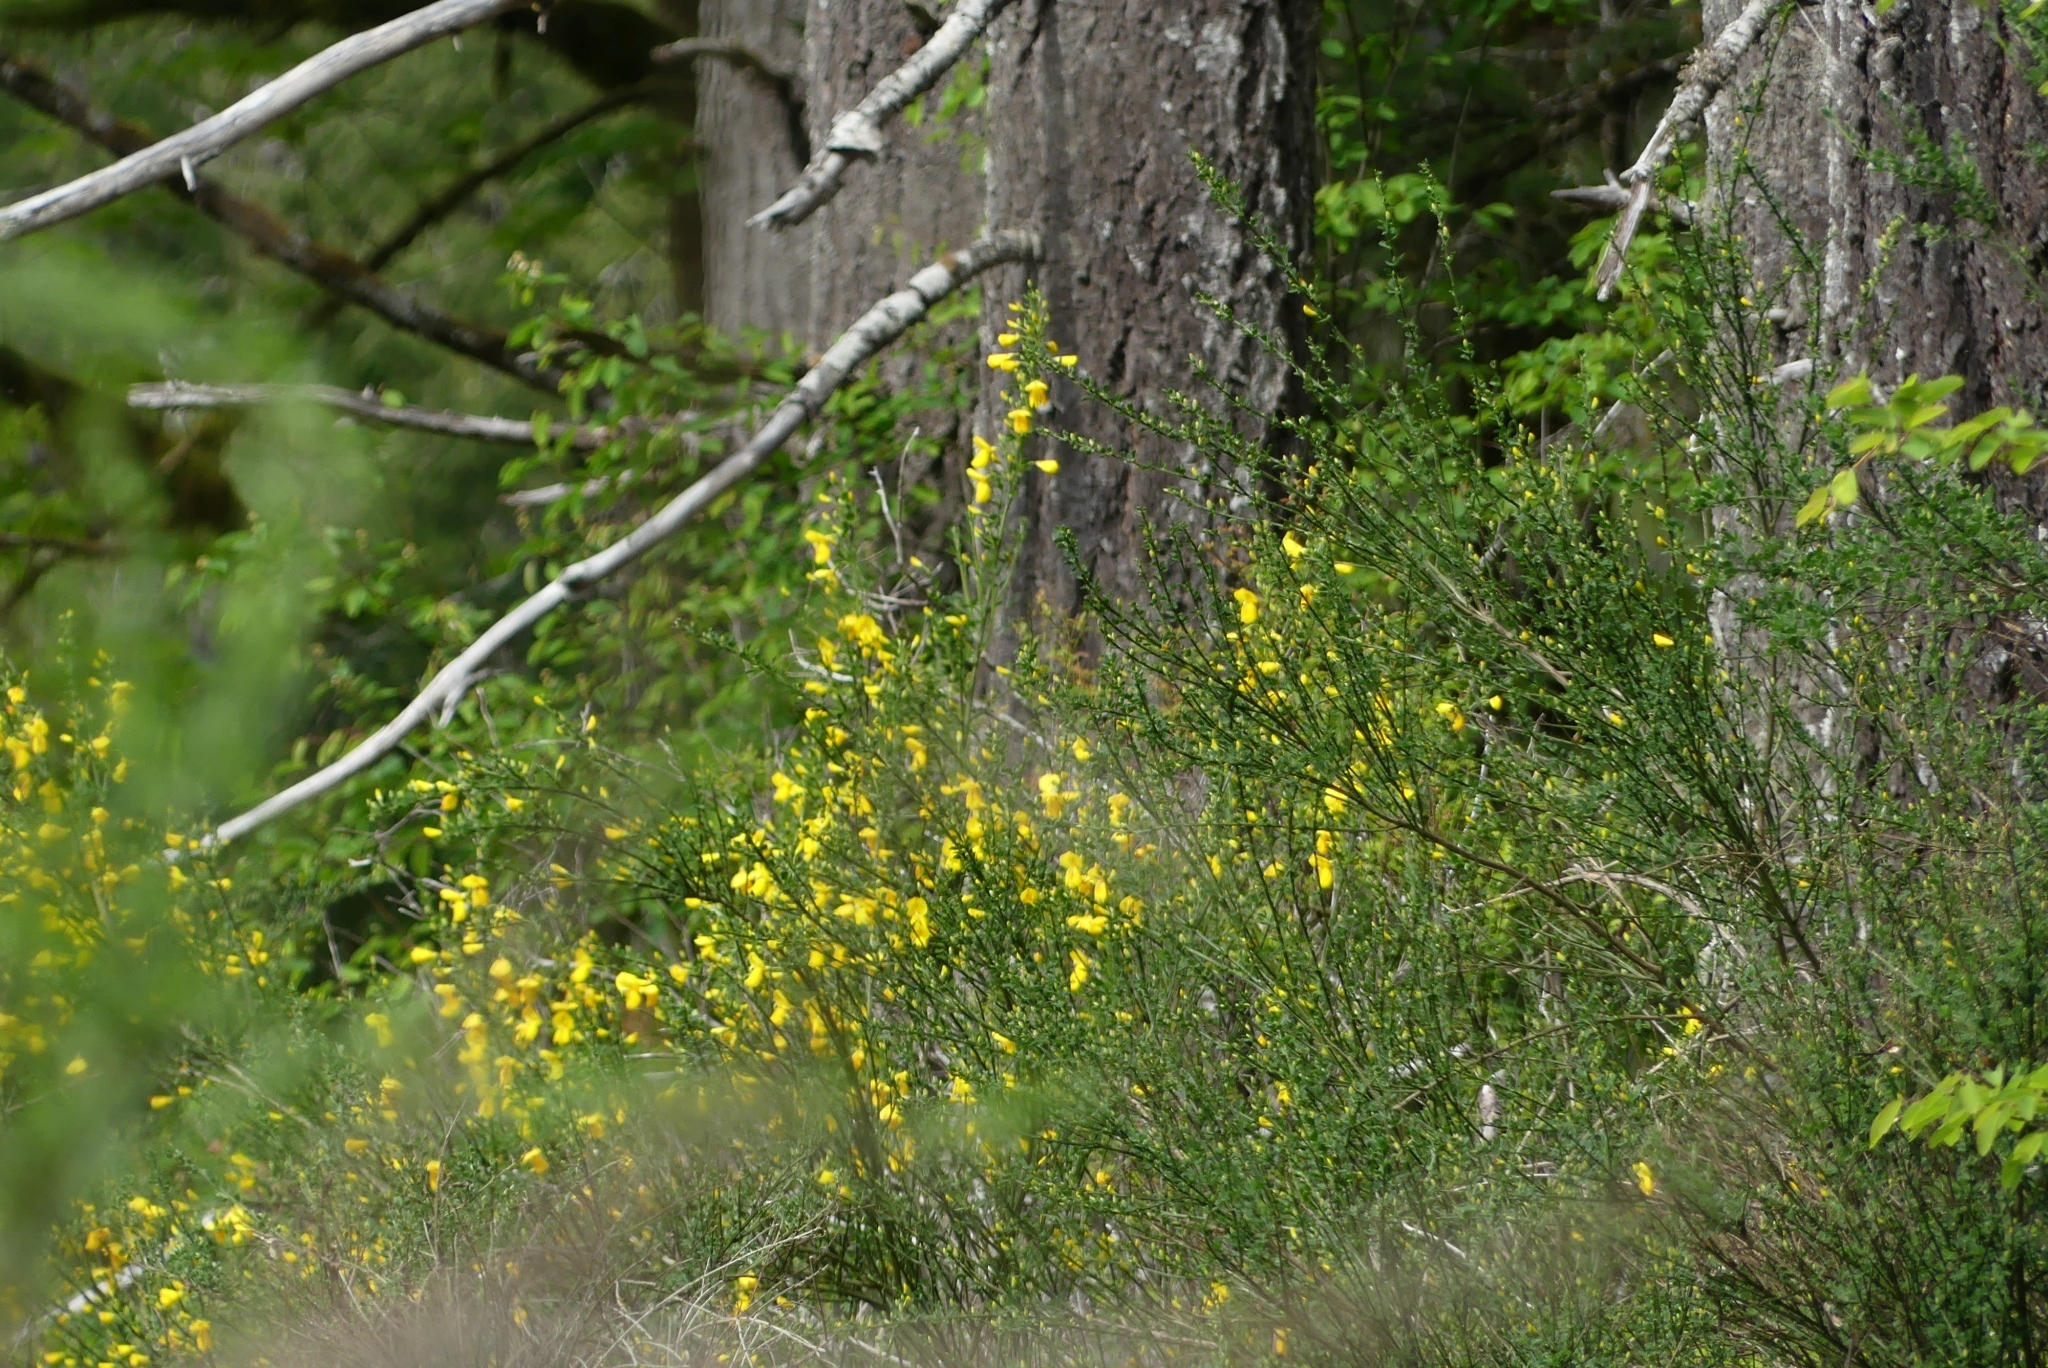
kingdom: Plantae
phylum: Tracheophyta
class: Magnoliopsida
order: Fabales
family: Fabaceae
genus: Cytisus
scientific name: Cytisus scoparius
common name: Scotch broom
